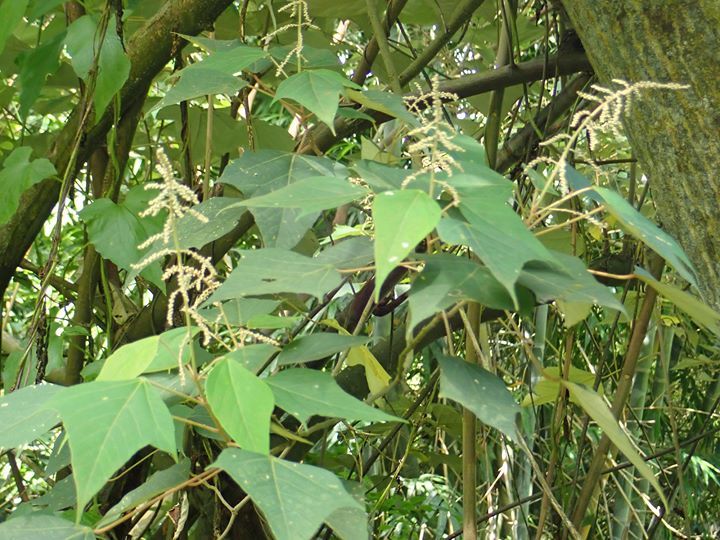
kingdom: Plantae
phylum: Tracheophyta
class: Magnoliopsida
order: Malpighiales
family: Euphorbiaceae
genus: Mallotus
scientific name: Mallotus paniculatus
